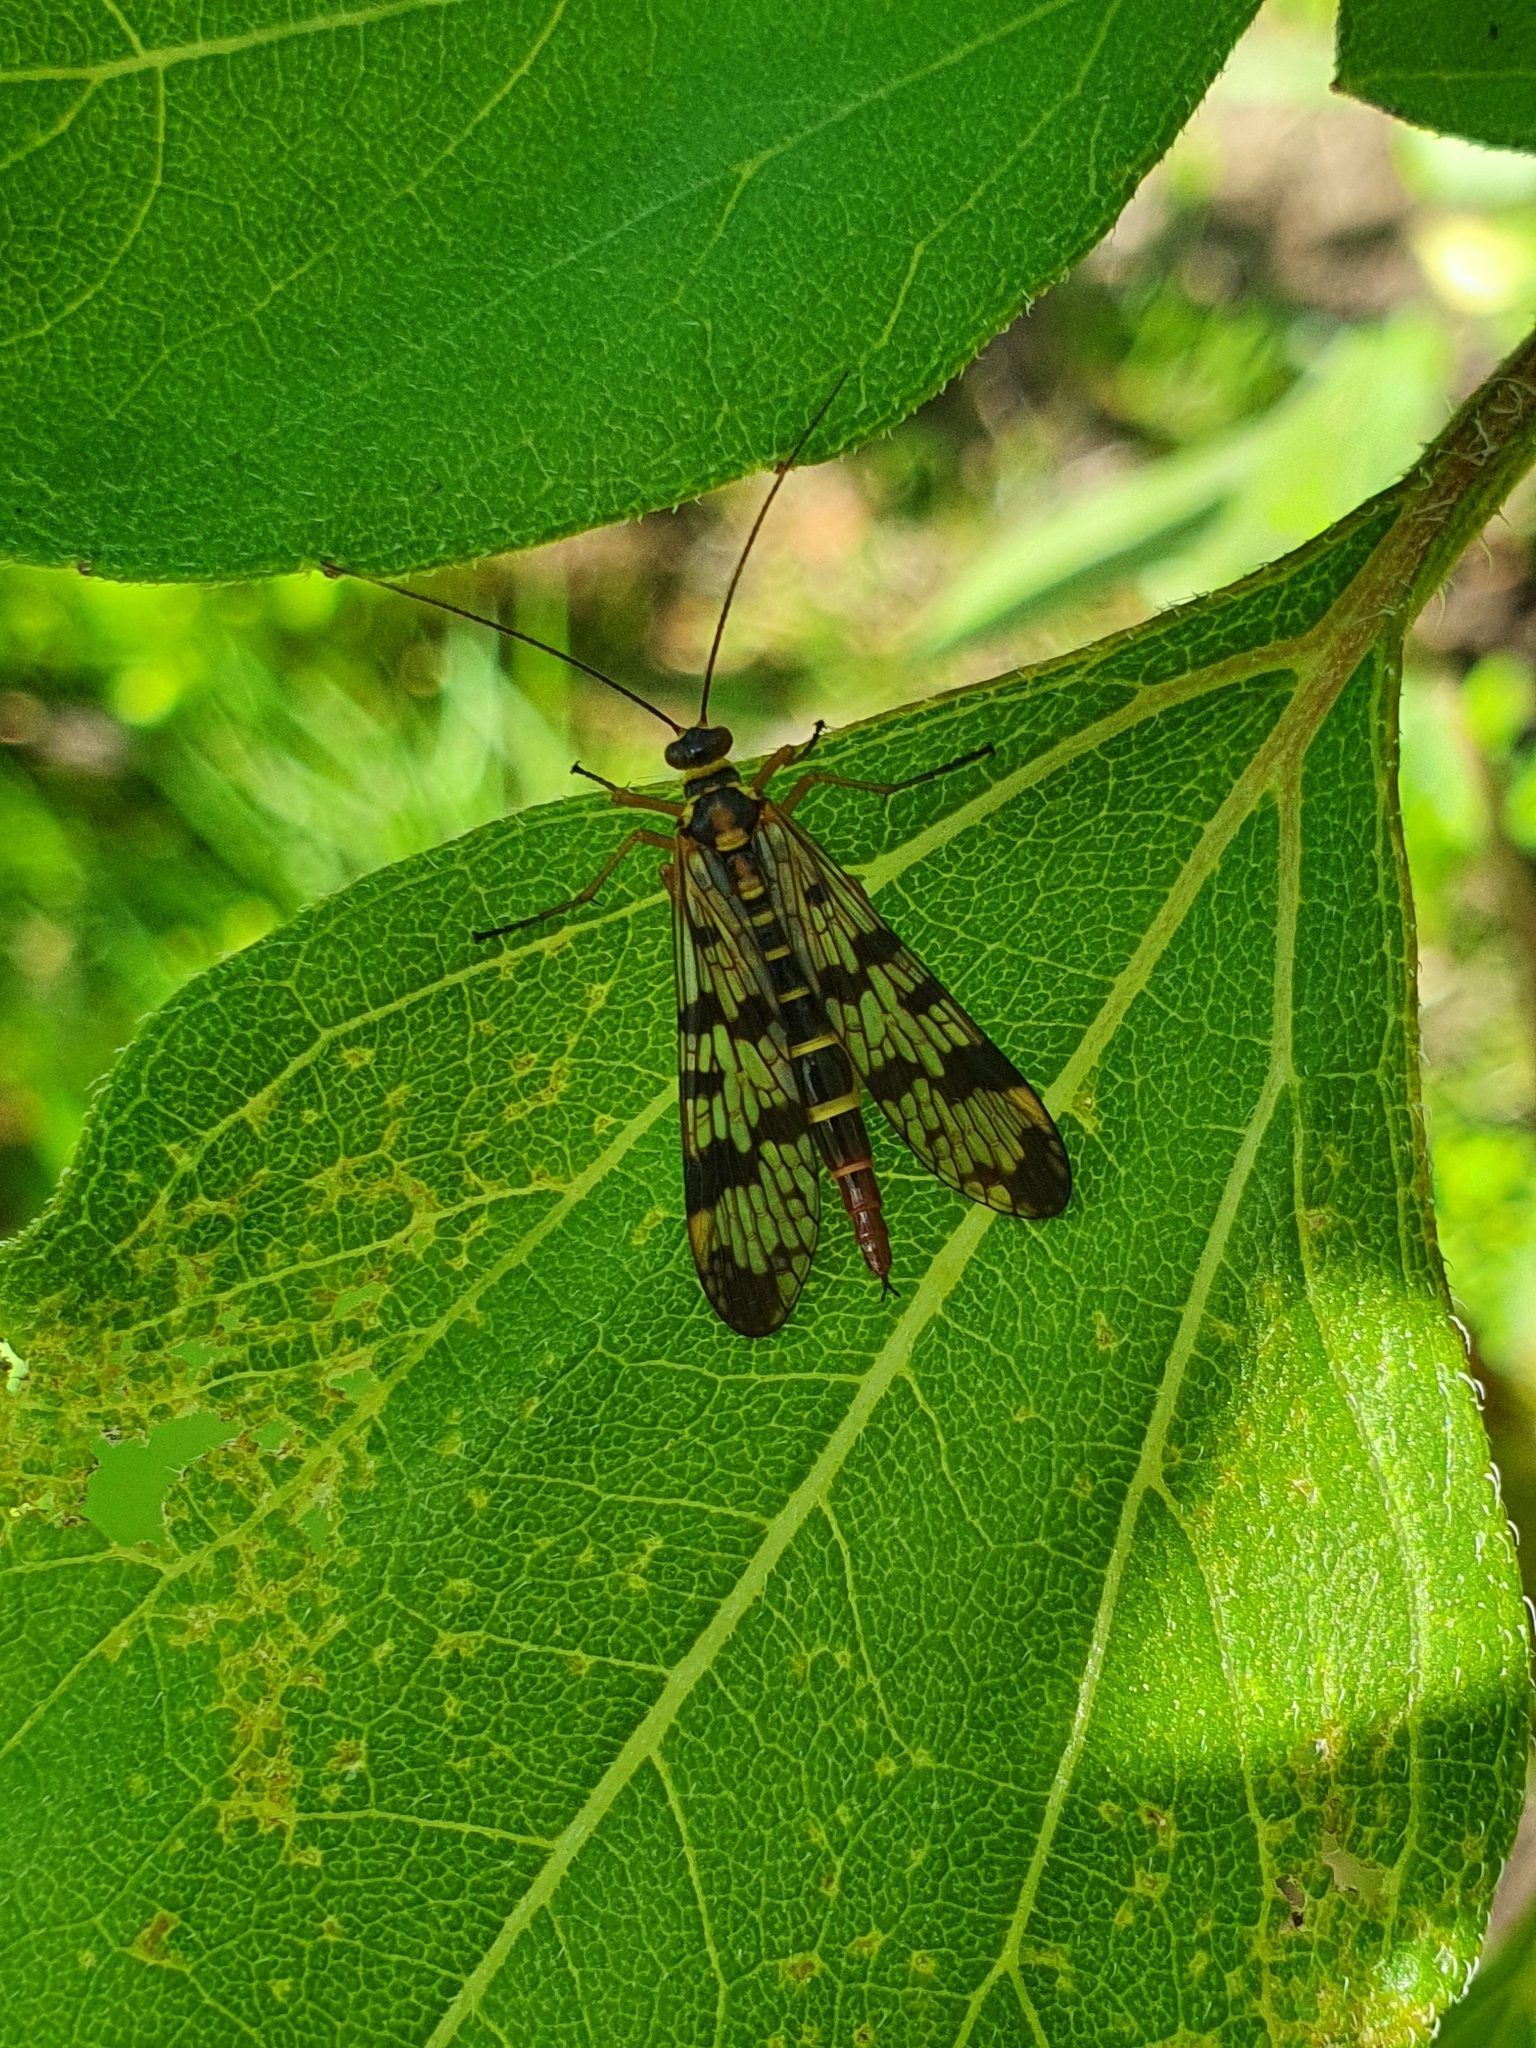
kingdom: Animalia
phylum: Arthropoda
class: Insecta
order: Mecoptera
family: Panorpidae
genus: Panorpa
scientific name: Panorpa communis
